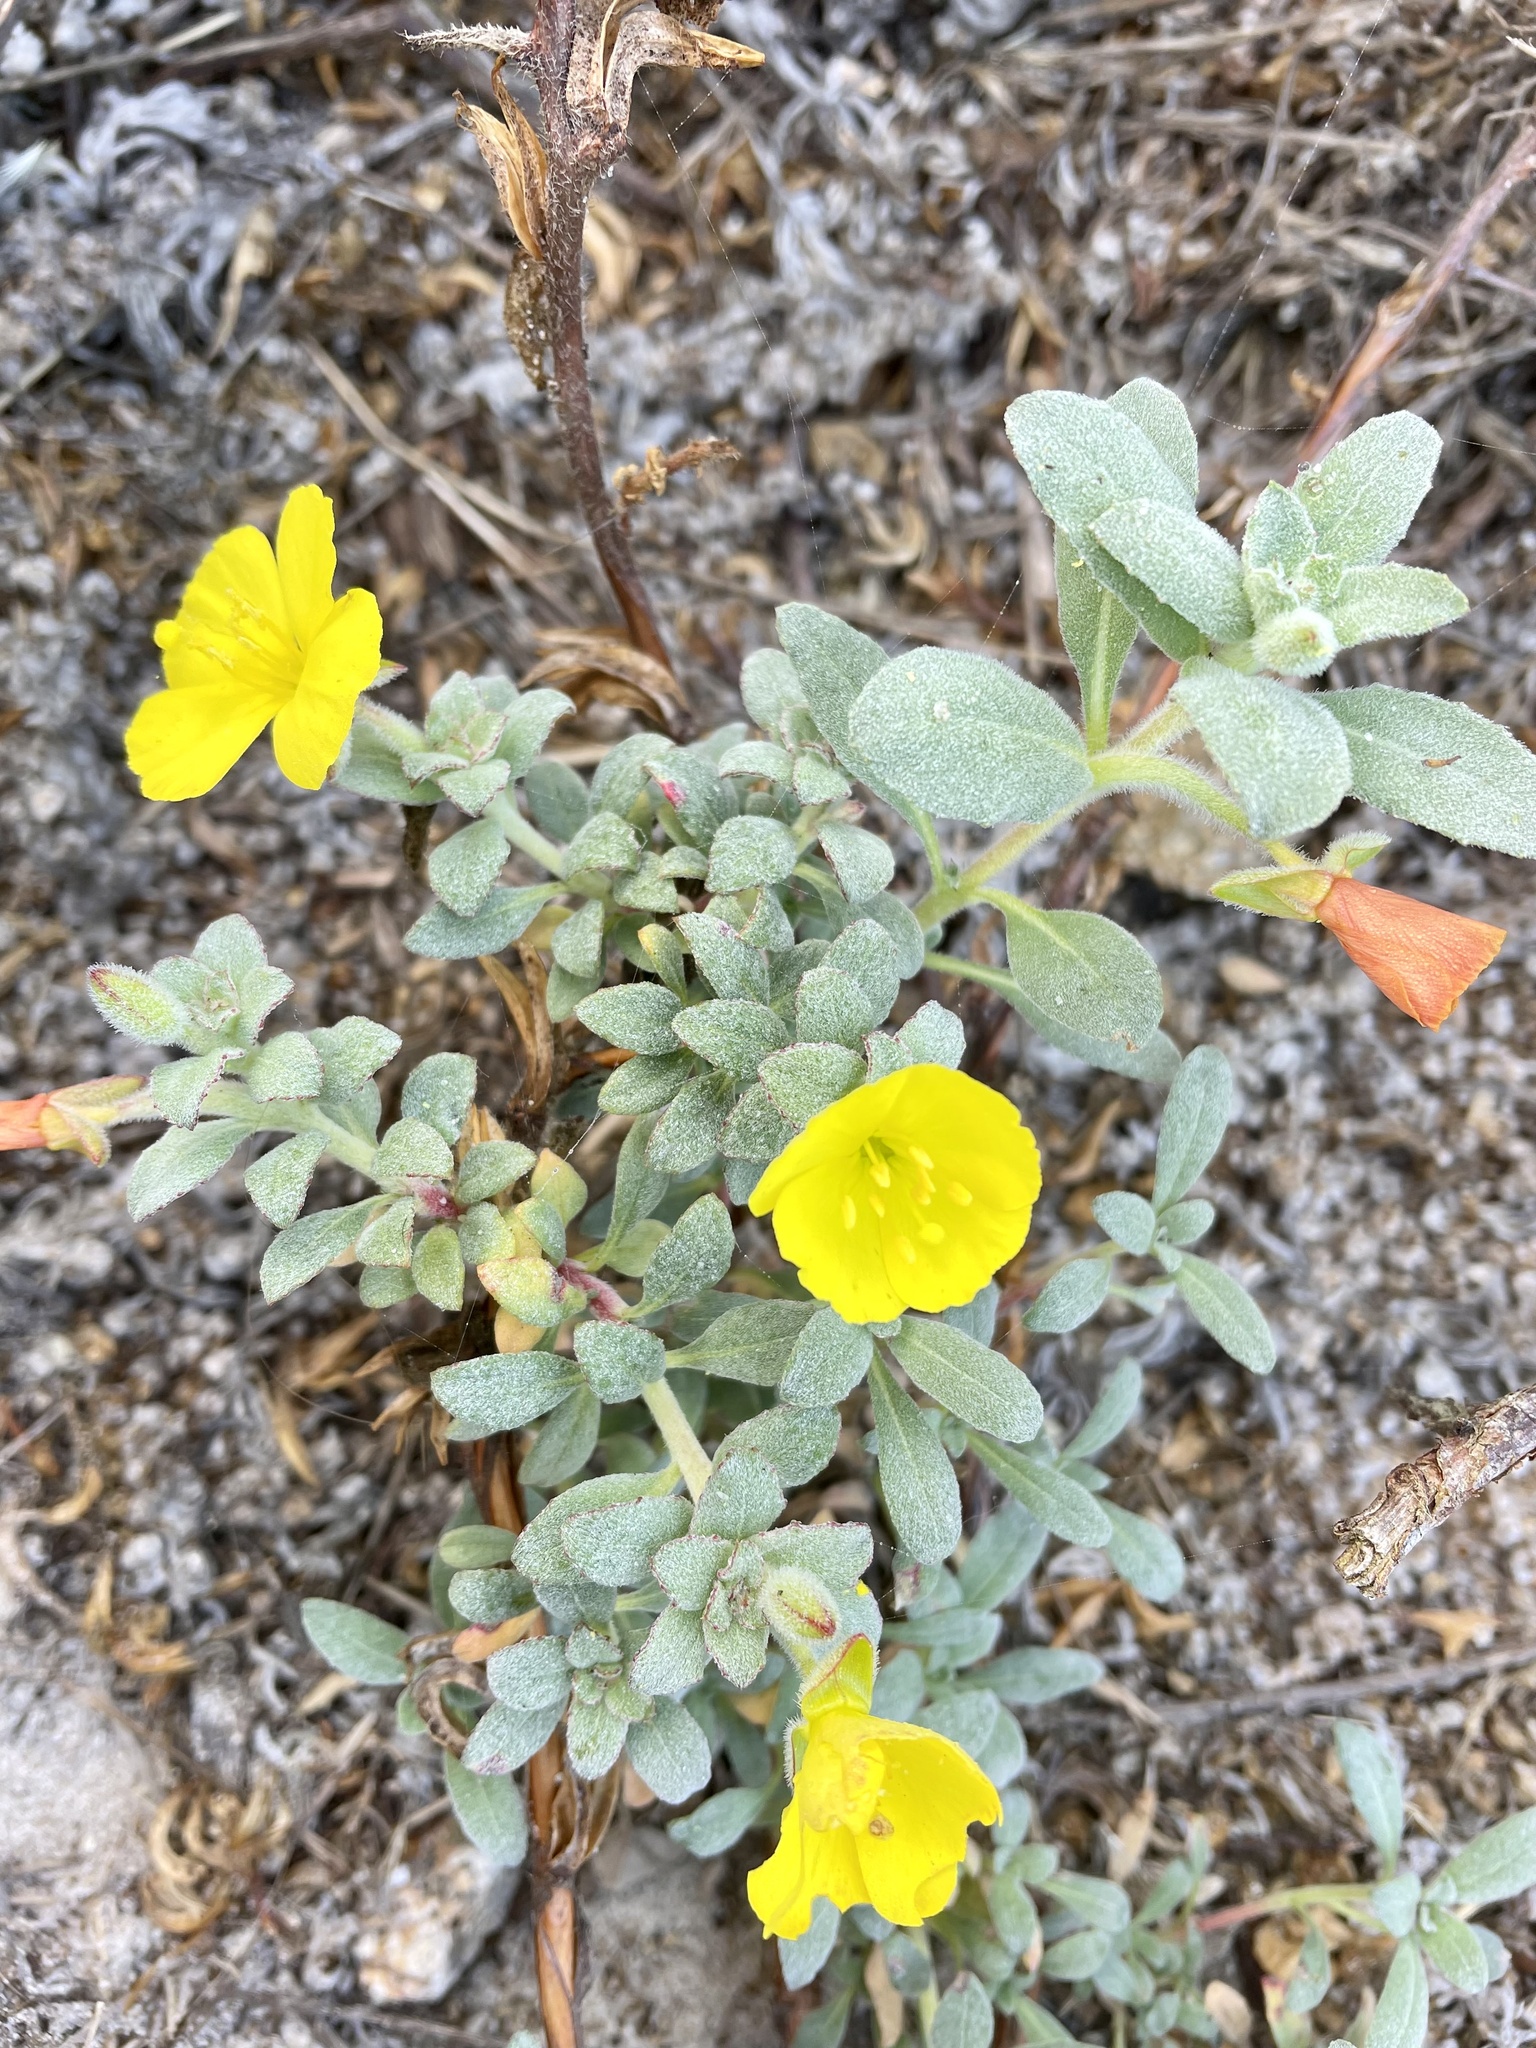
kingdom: Plantae
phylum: Tracheophyta
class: Magnoliopsida
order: Myrtales
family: Onagraceae
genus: Camissoniopsis
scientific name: Camissoniopsis cheiranthifolia
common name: Beach suncup
